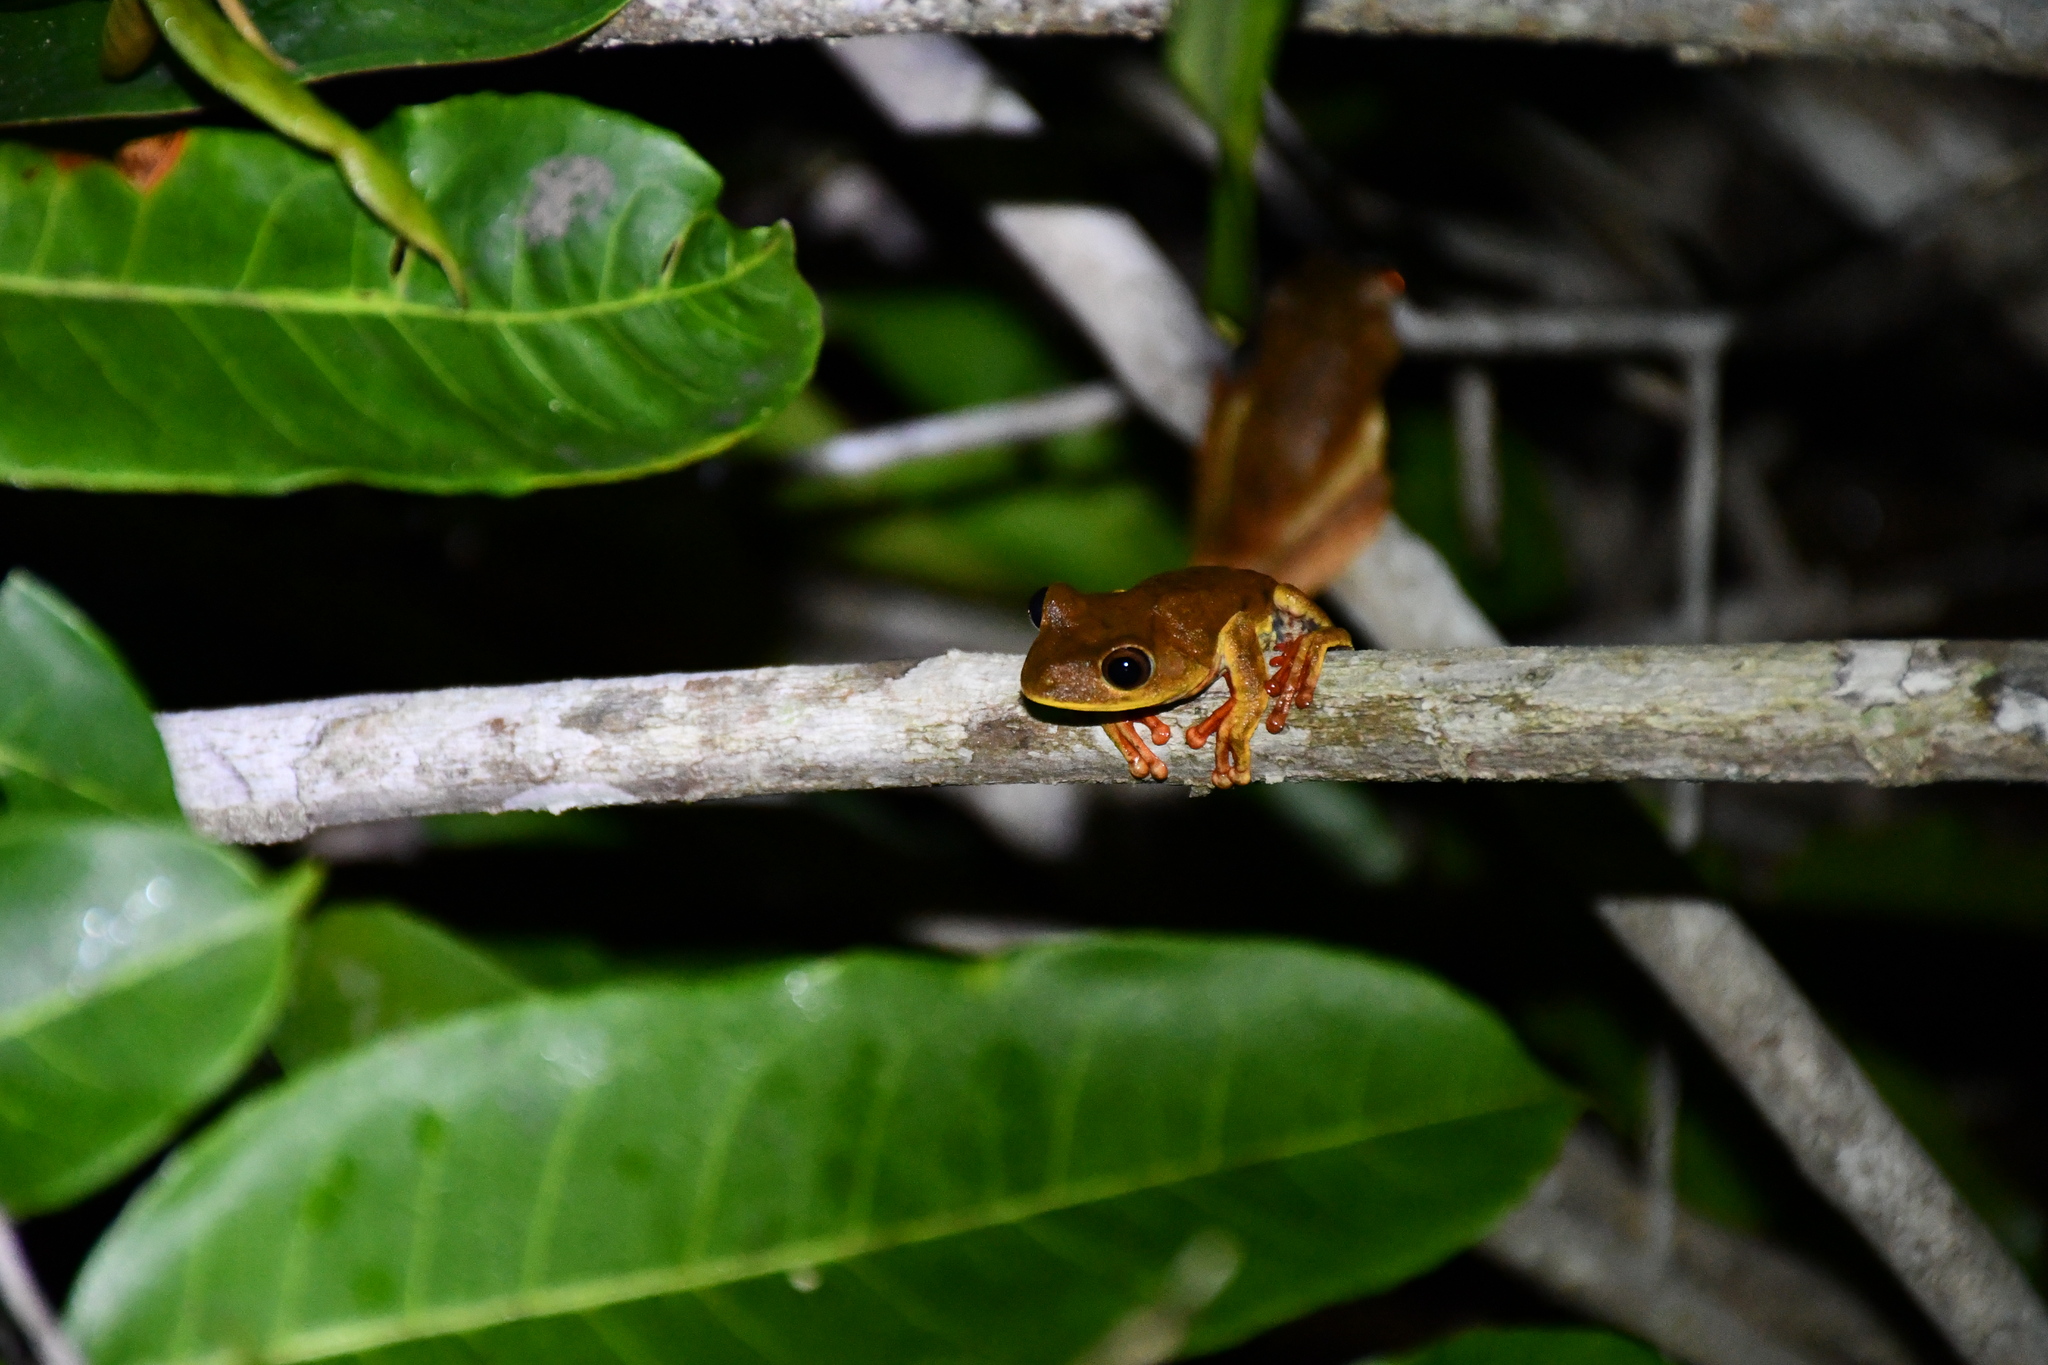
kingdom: Animalia
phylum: Chordata
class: Amphibia
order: Anura
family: Hylidae
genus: Boana
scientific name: Boana geographica
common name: Map treefrog
